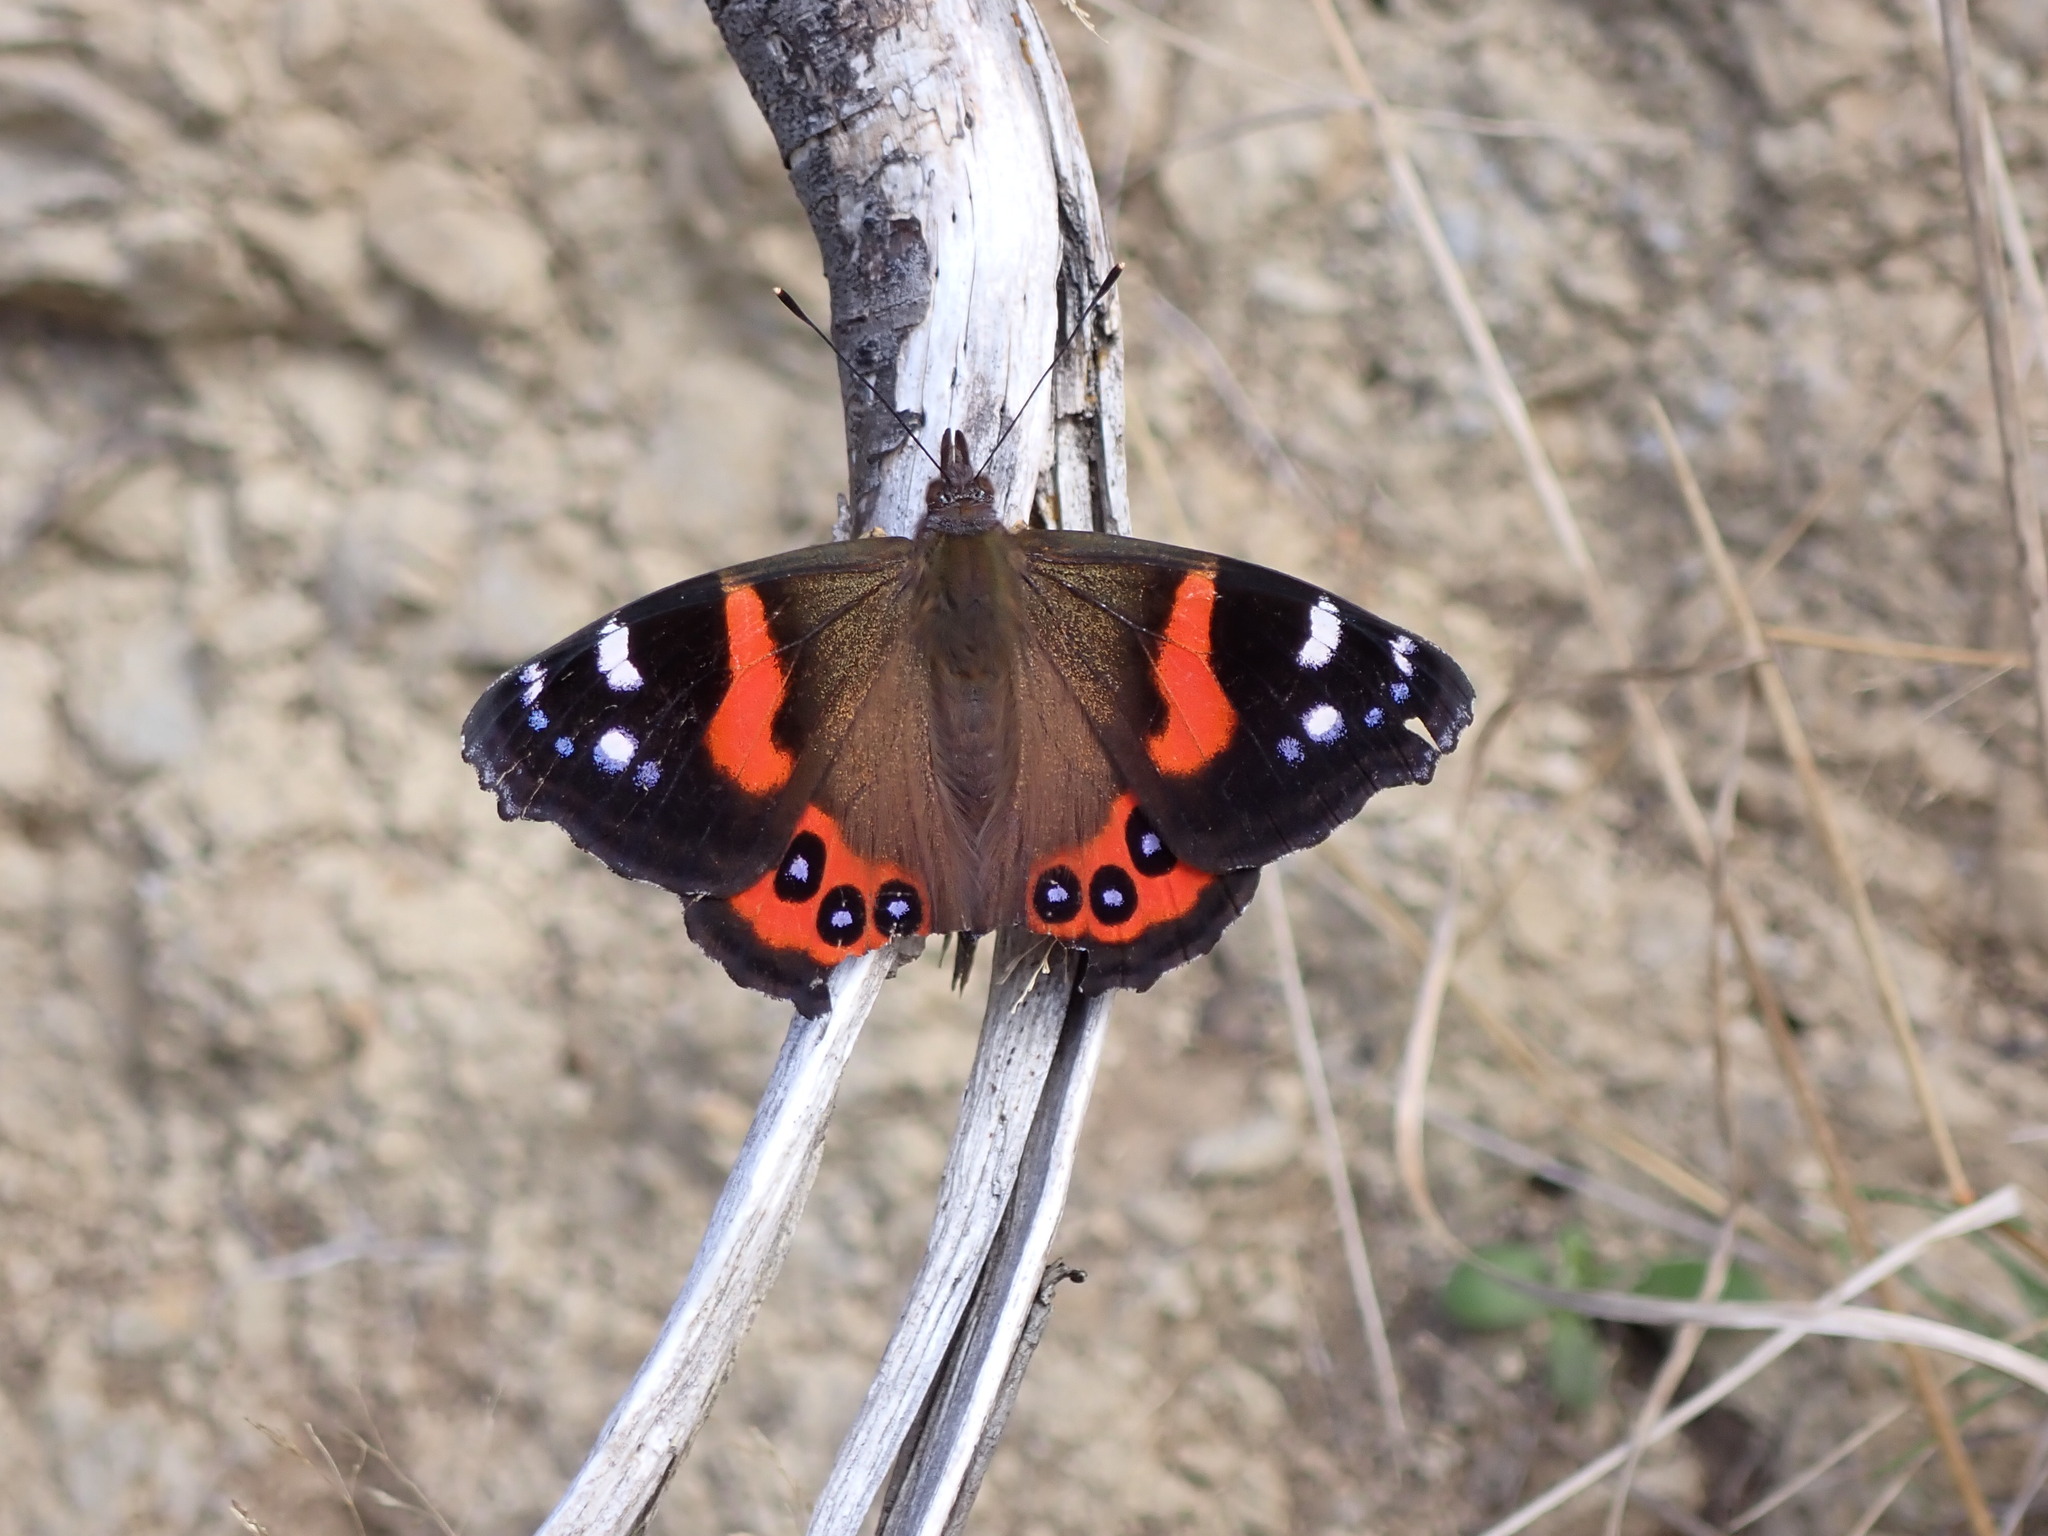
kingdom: Animalia
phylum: Arthropoda
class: Insecta
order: Lepidoptera
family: Nymphalidae
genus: Vanessa
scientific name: Vanessa gonerilla
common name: New zealand red admiral
